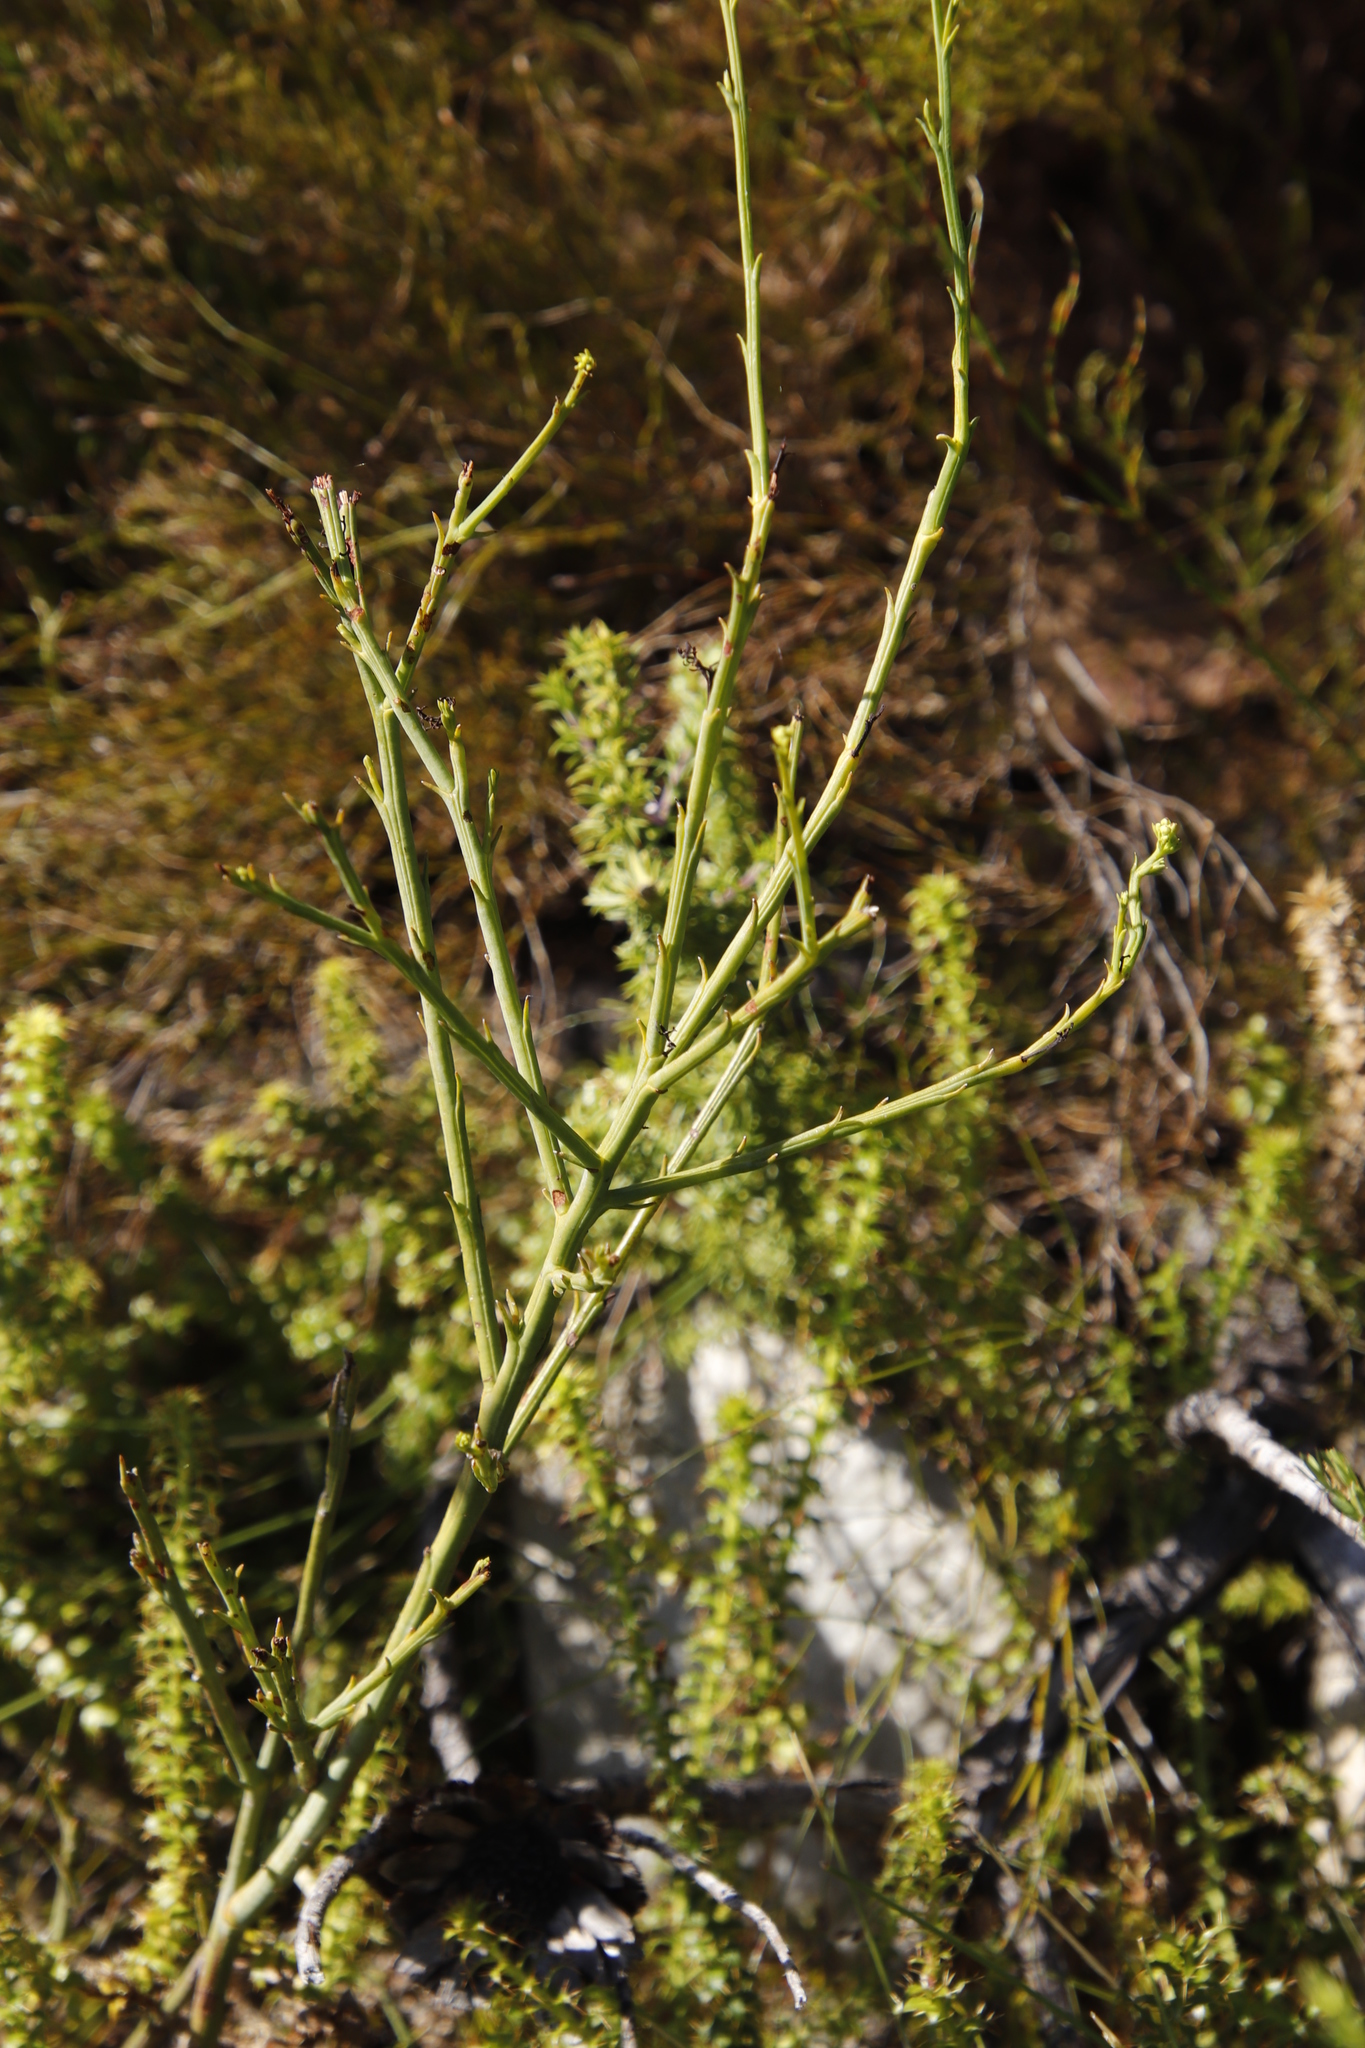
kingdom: Plantae
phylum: Tracheophyta
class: Magnoliopsida
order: Santalales
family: Thesiaceae
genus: Thesium
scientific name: Thesium strictum
